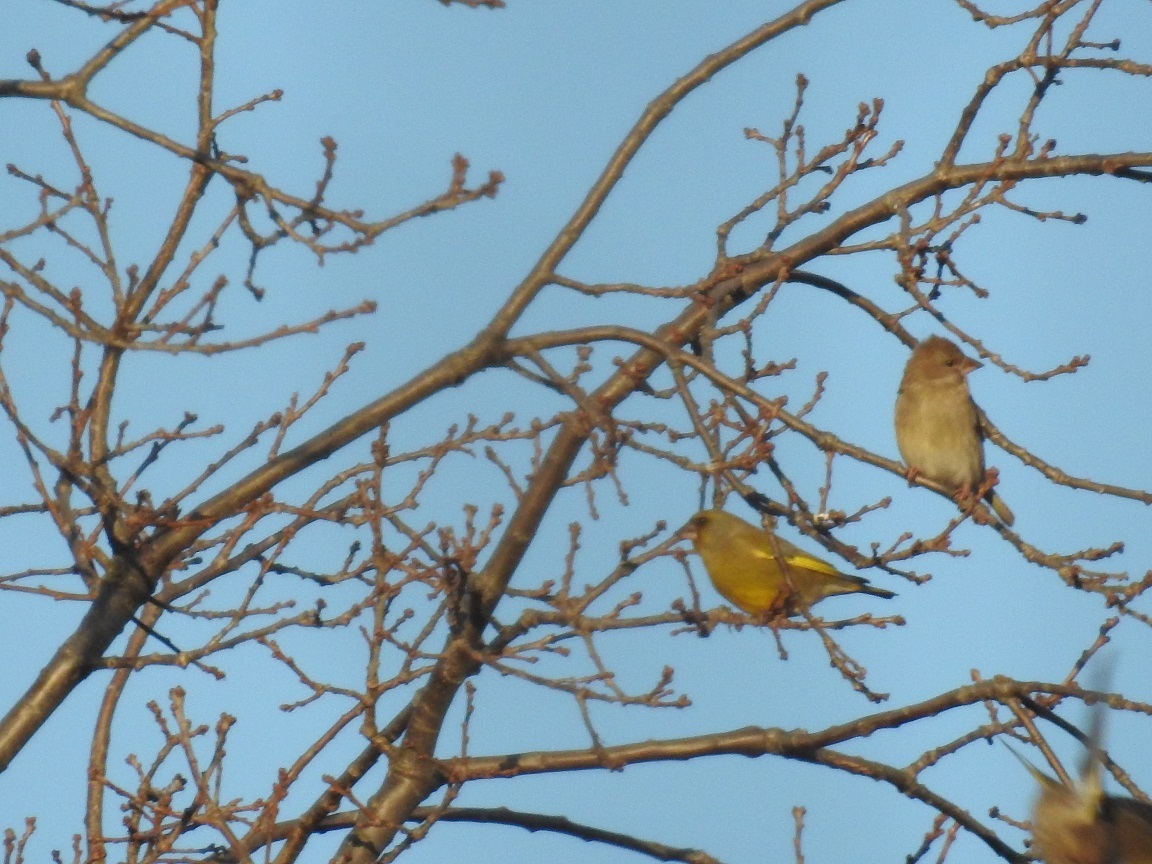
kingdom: Plantae
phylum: Tracheophyta
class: Liliopsida
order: Poales
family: Poaceae
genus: Chloris
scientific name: Chloris chloris
